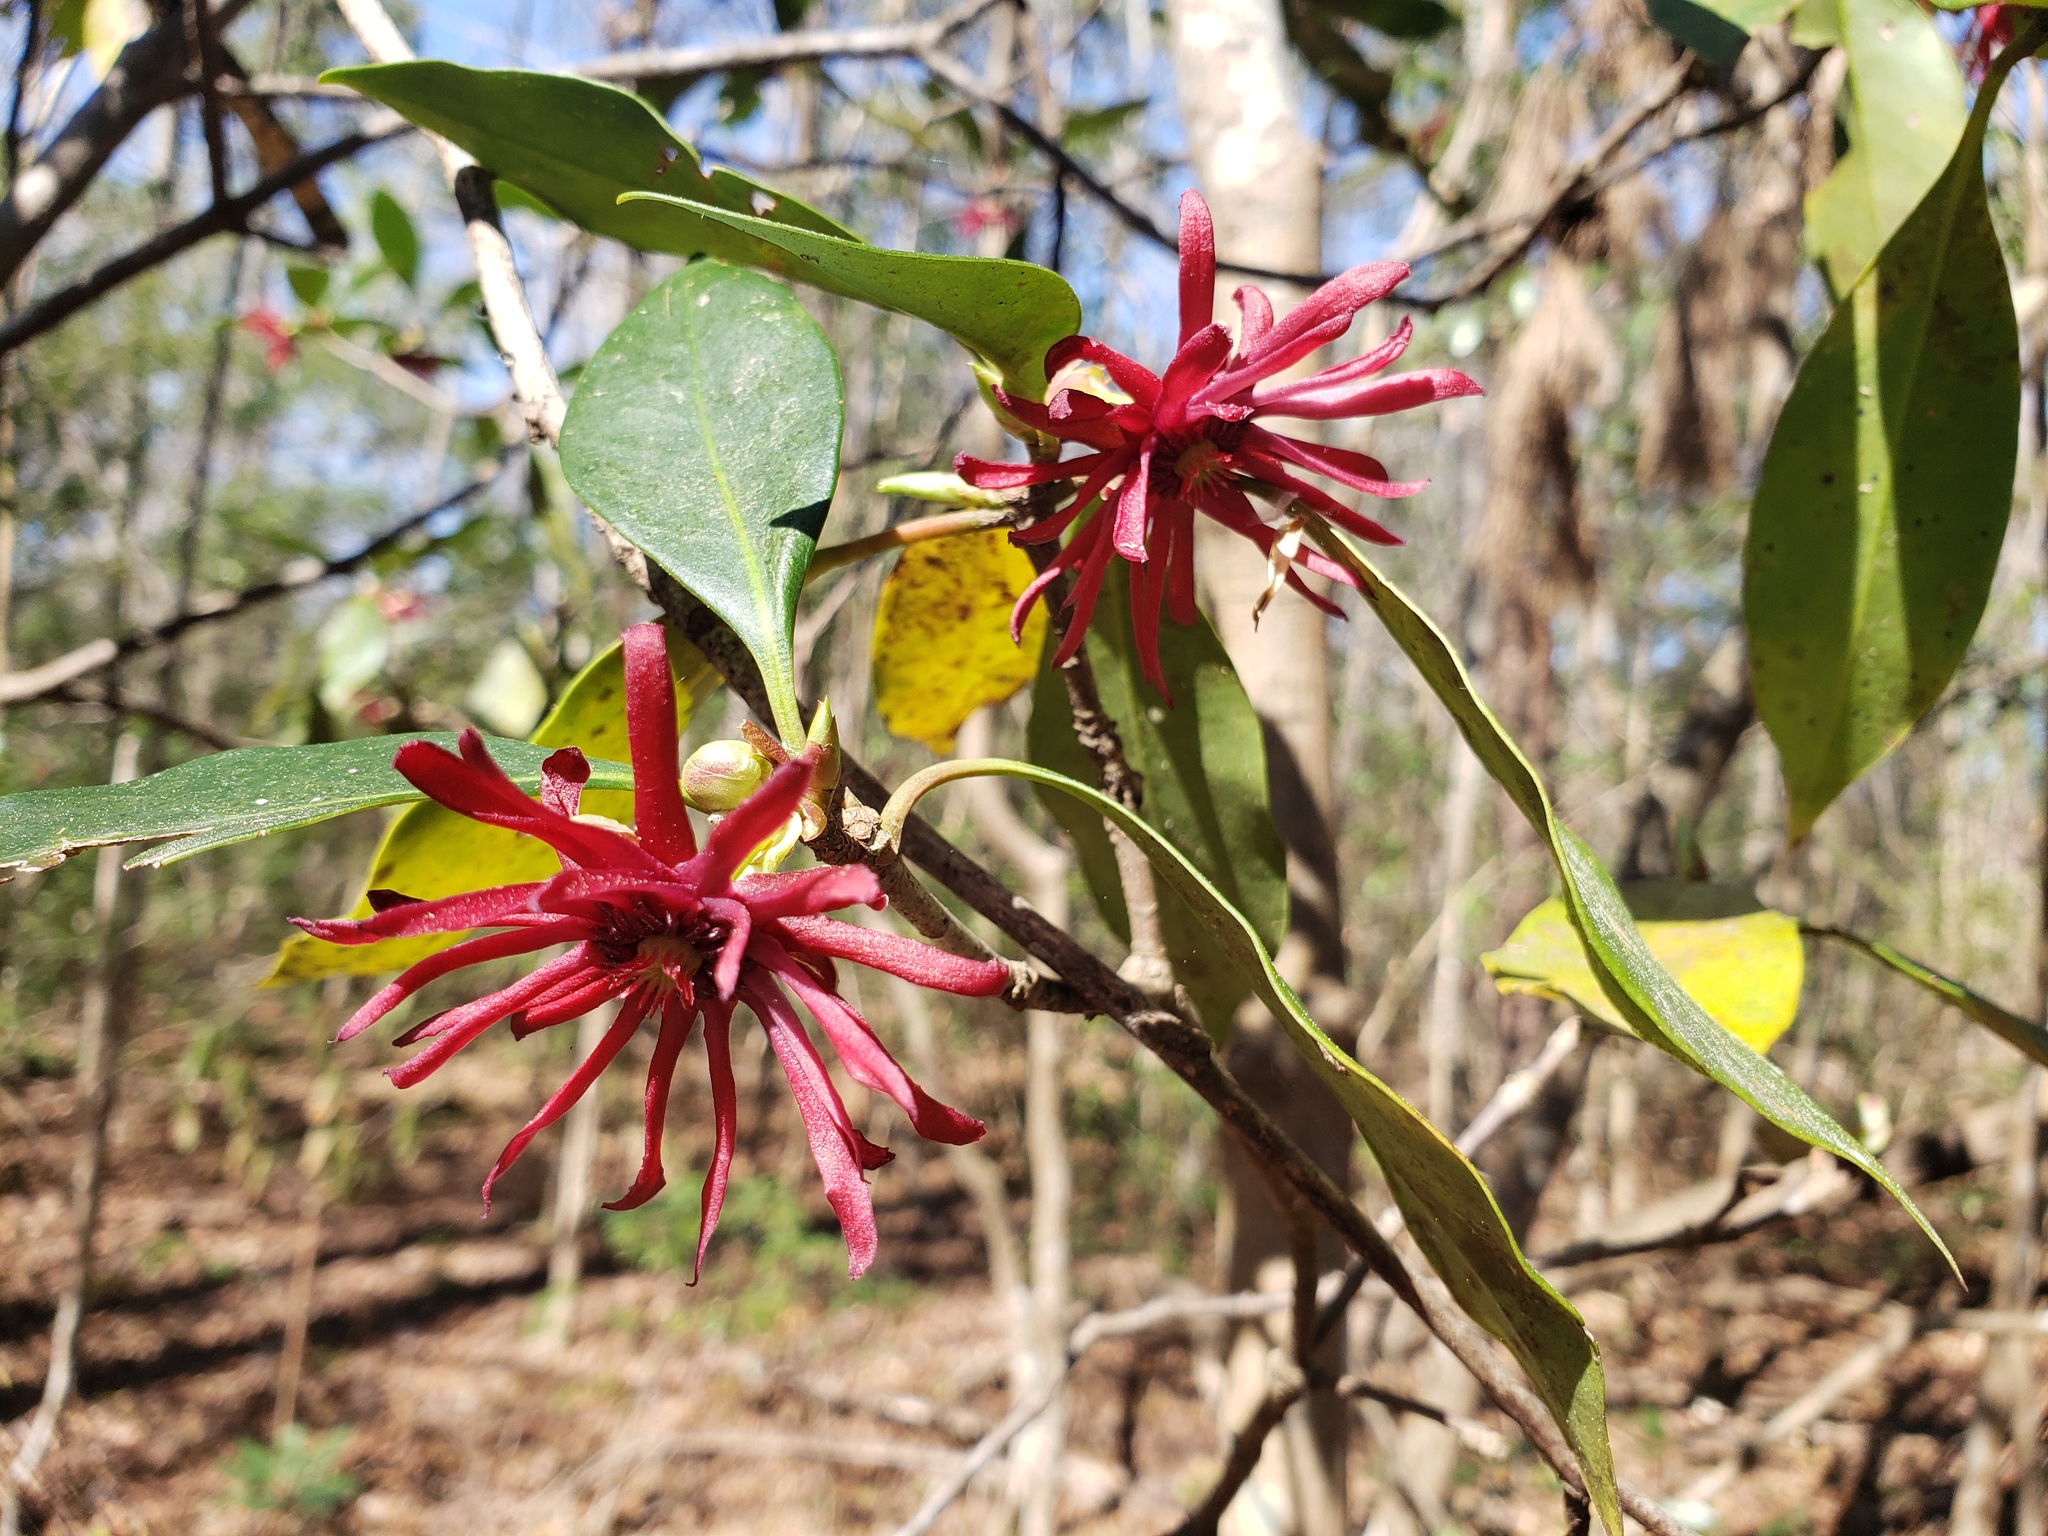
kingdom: Plantae
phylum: Tracheophyta
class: Magnoliopsida
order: Austrobaileyales
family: Schisandraceae
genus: Illicium
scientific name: Illicium floridanum
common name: Florida anisetree
